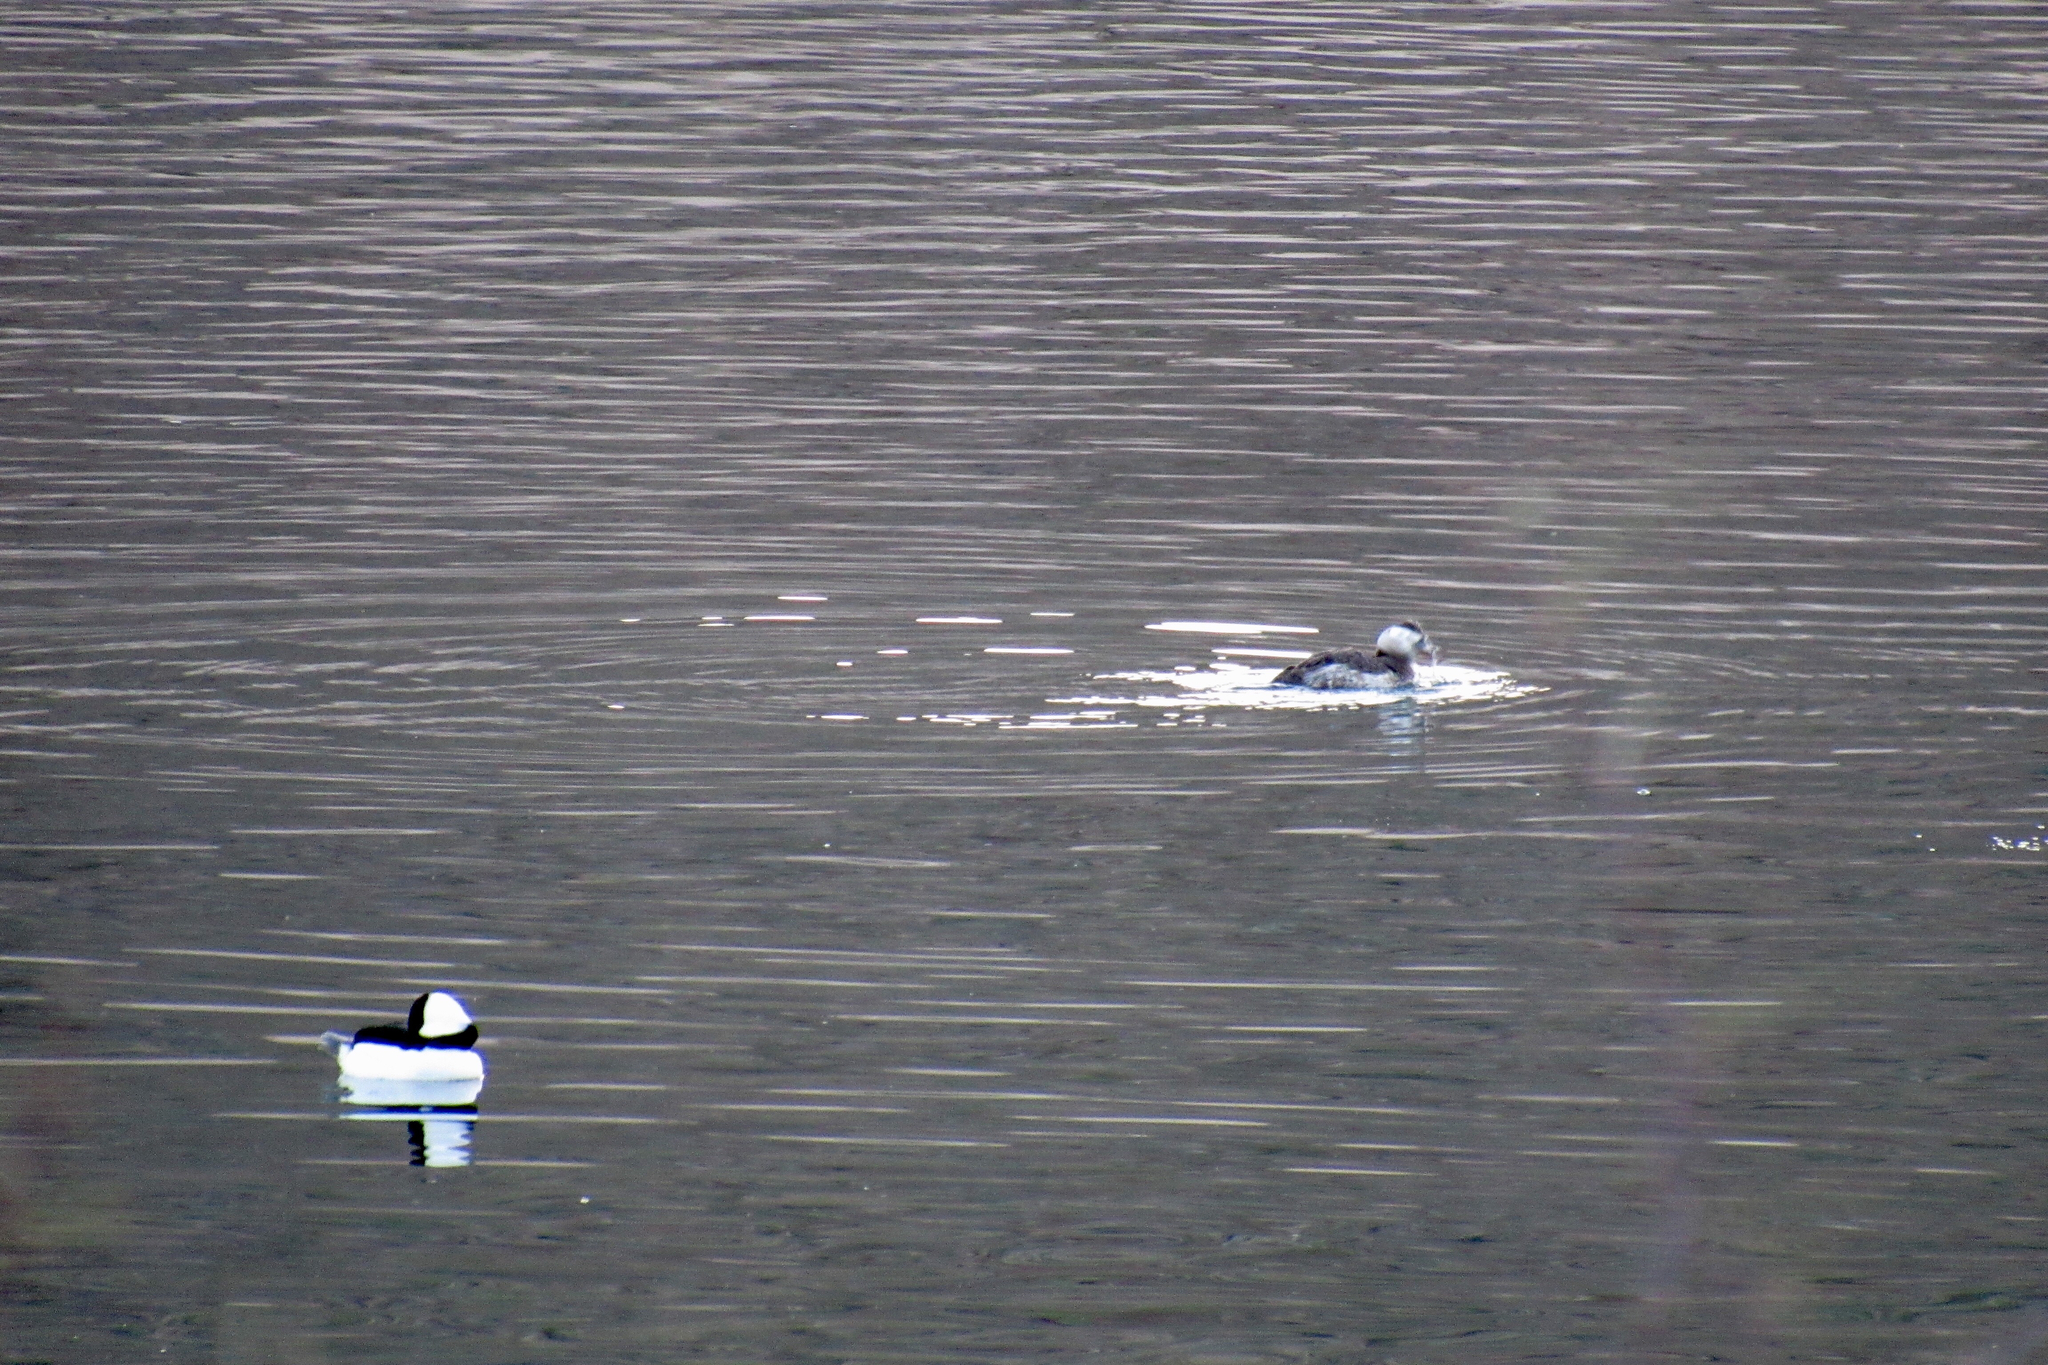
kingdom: Animalia
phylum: Chordata
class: Aves
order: Anseriformes
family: Anatidae
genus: Bucephala
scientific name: Bucephala albeola
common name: Bufflehead
